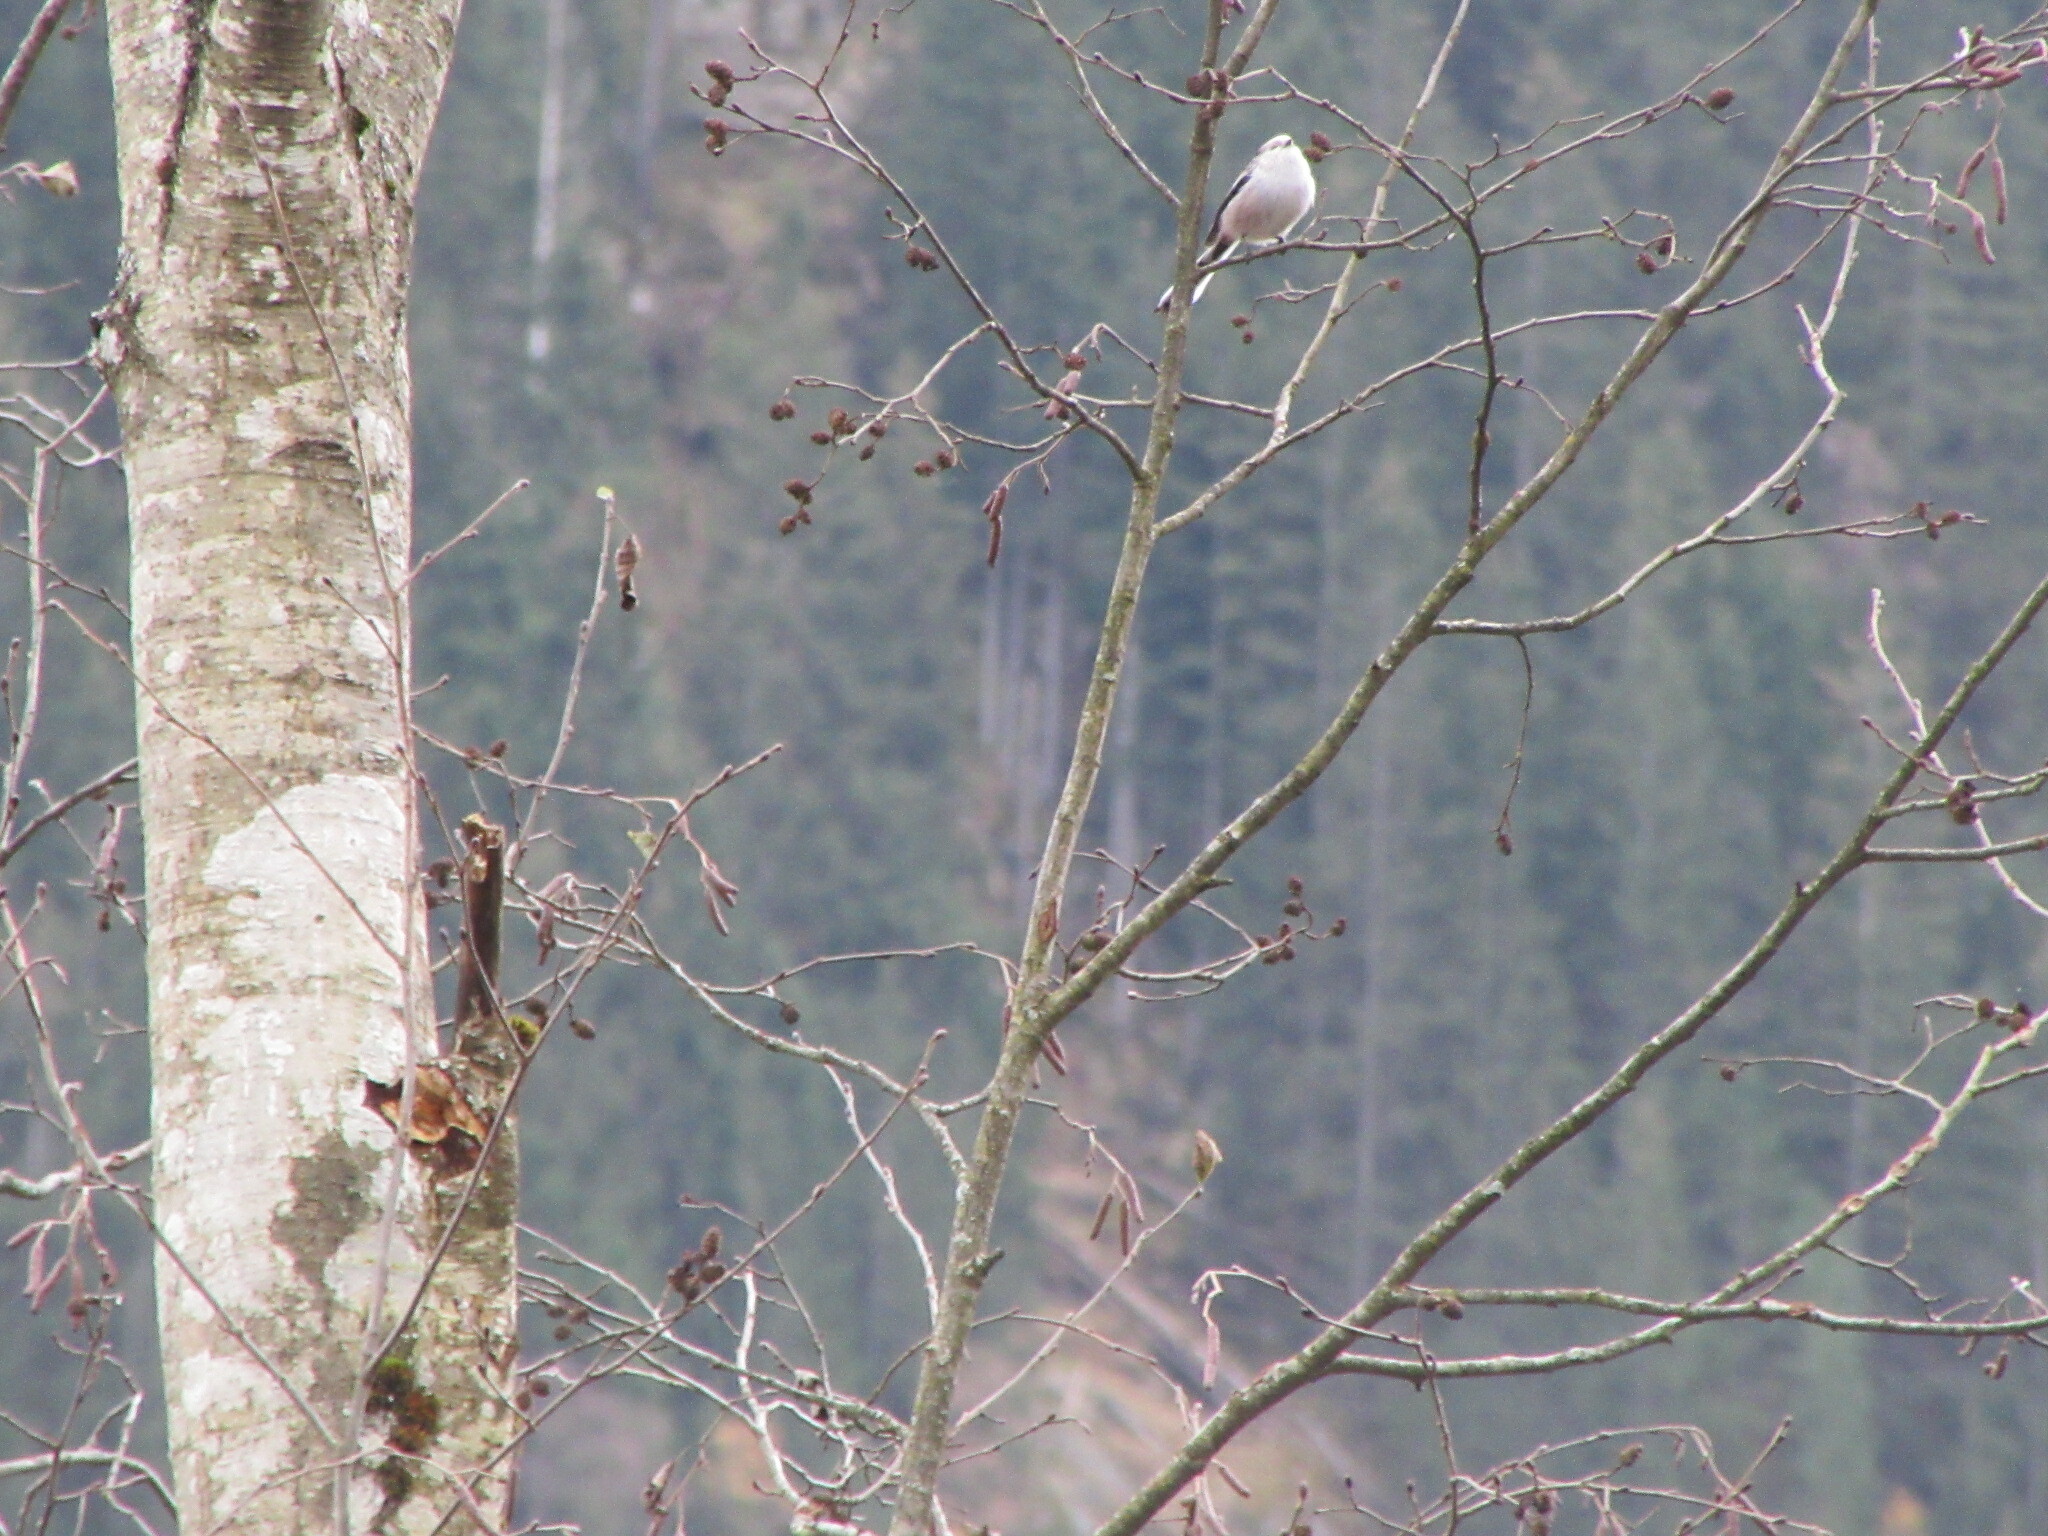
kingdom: Animalia
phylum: Chordata
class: Aves
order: Passeriformes
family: Aegithalidae
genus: Aegithalos
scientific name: Aegithalos caudatus
